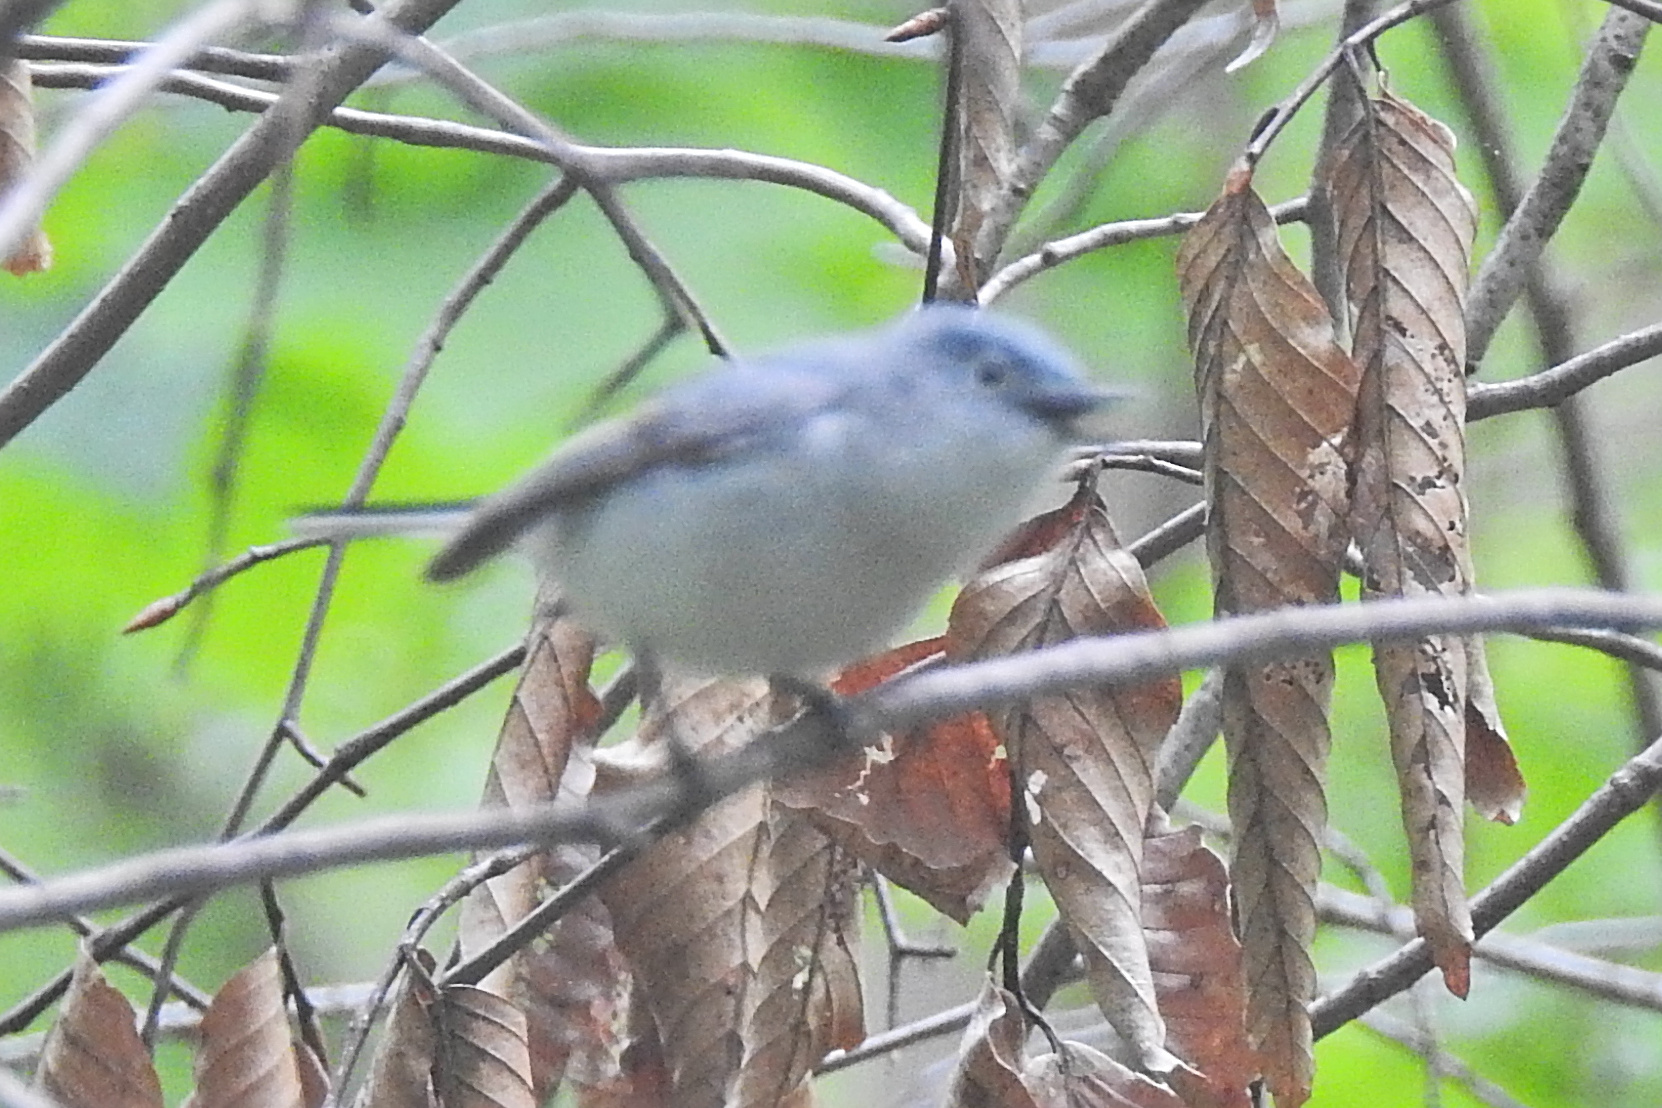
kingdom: Animalia
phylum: Chordata
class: Aves
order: Passeriformes
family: Polioptilidae
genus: Polioptila
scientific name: Polioptila caerulea
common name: Blue-gray gnatcatcher
